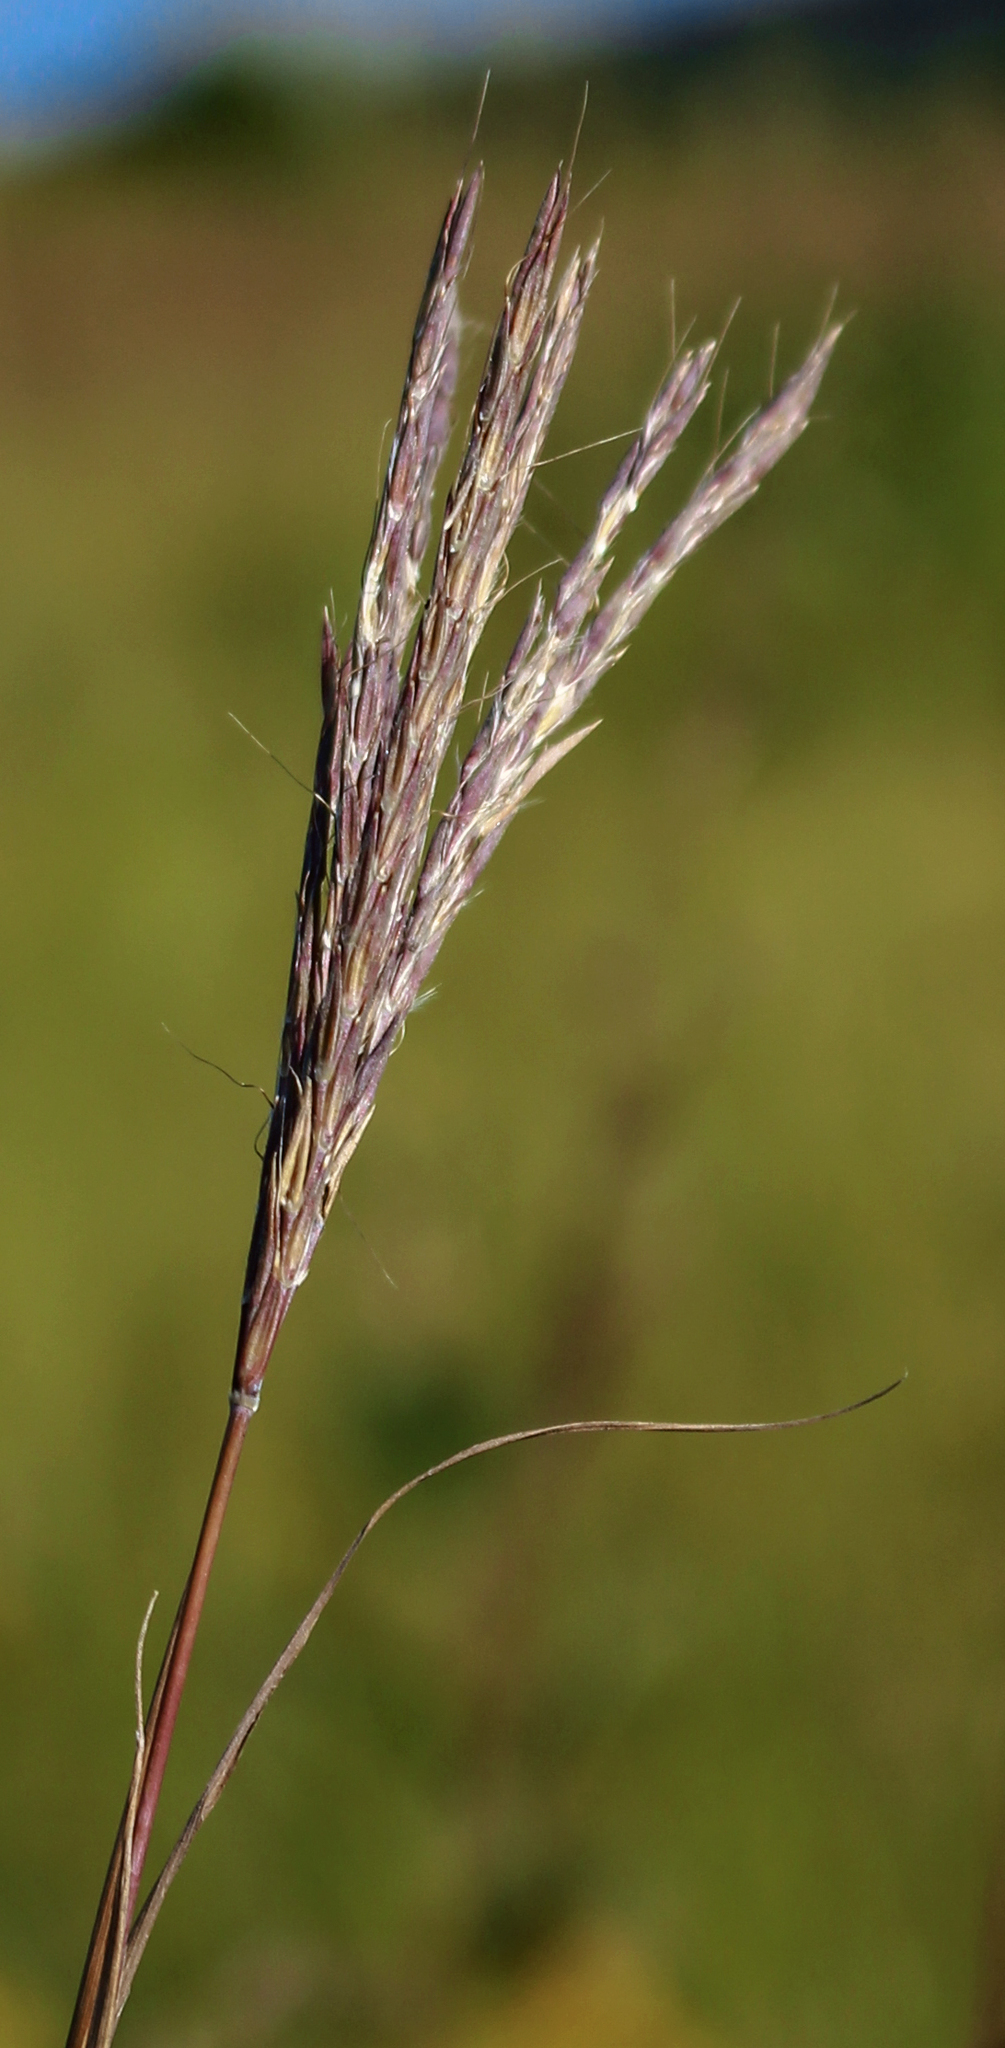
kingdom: Plantae
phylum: Tracheophyta
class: Liliopsida
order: Poales
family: Poaceae
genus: Andropogon
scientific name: Andropogon gerardi
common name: Big bluestem
